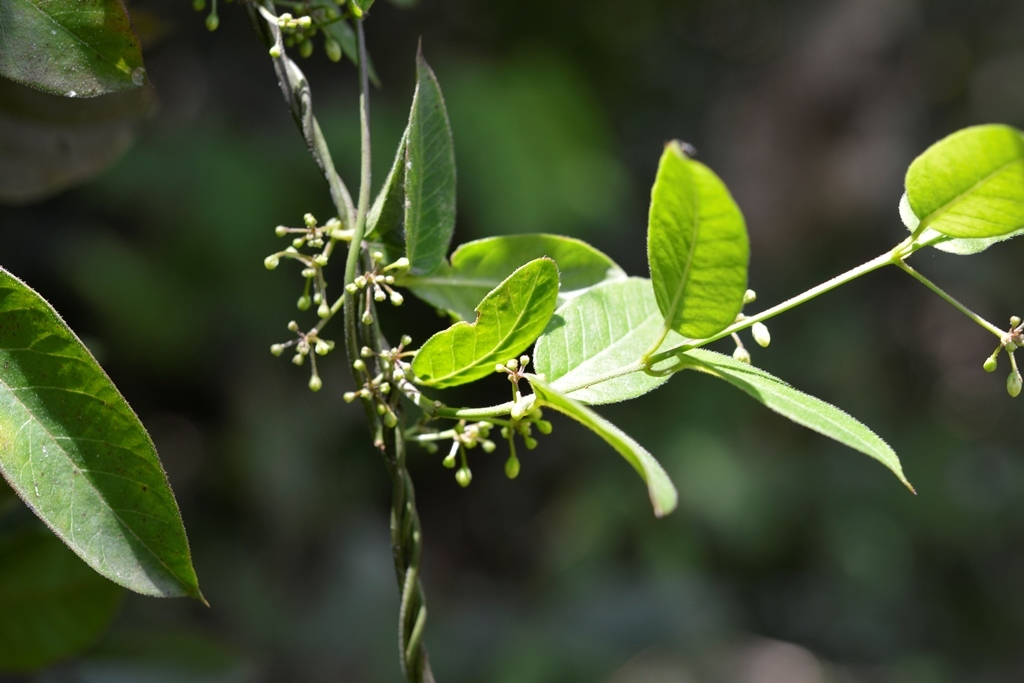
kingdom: Plantae
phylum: Tracheophyta
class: Magnoliopsida
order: Gentianales
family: Apocynaceae
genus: Metastelma
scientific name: Metastelma californicum
